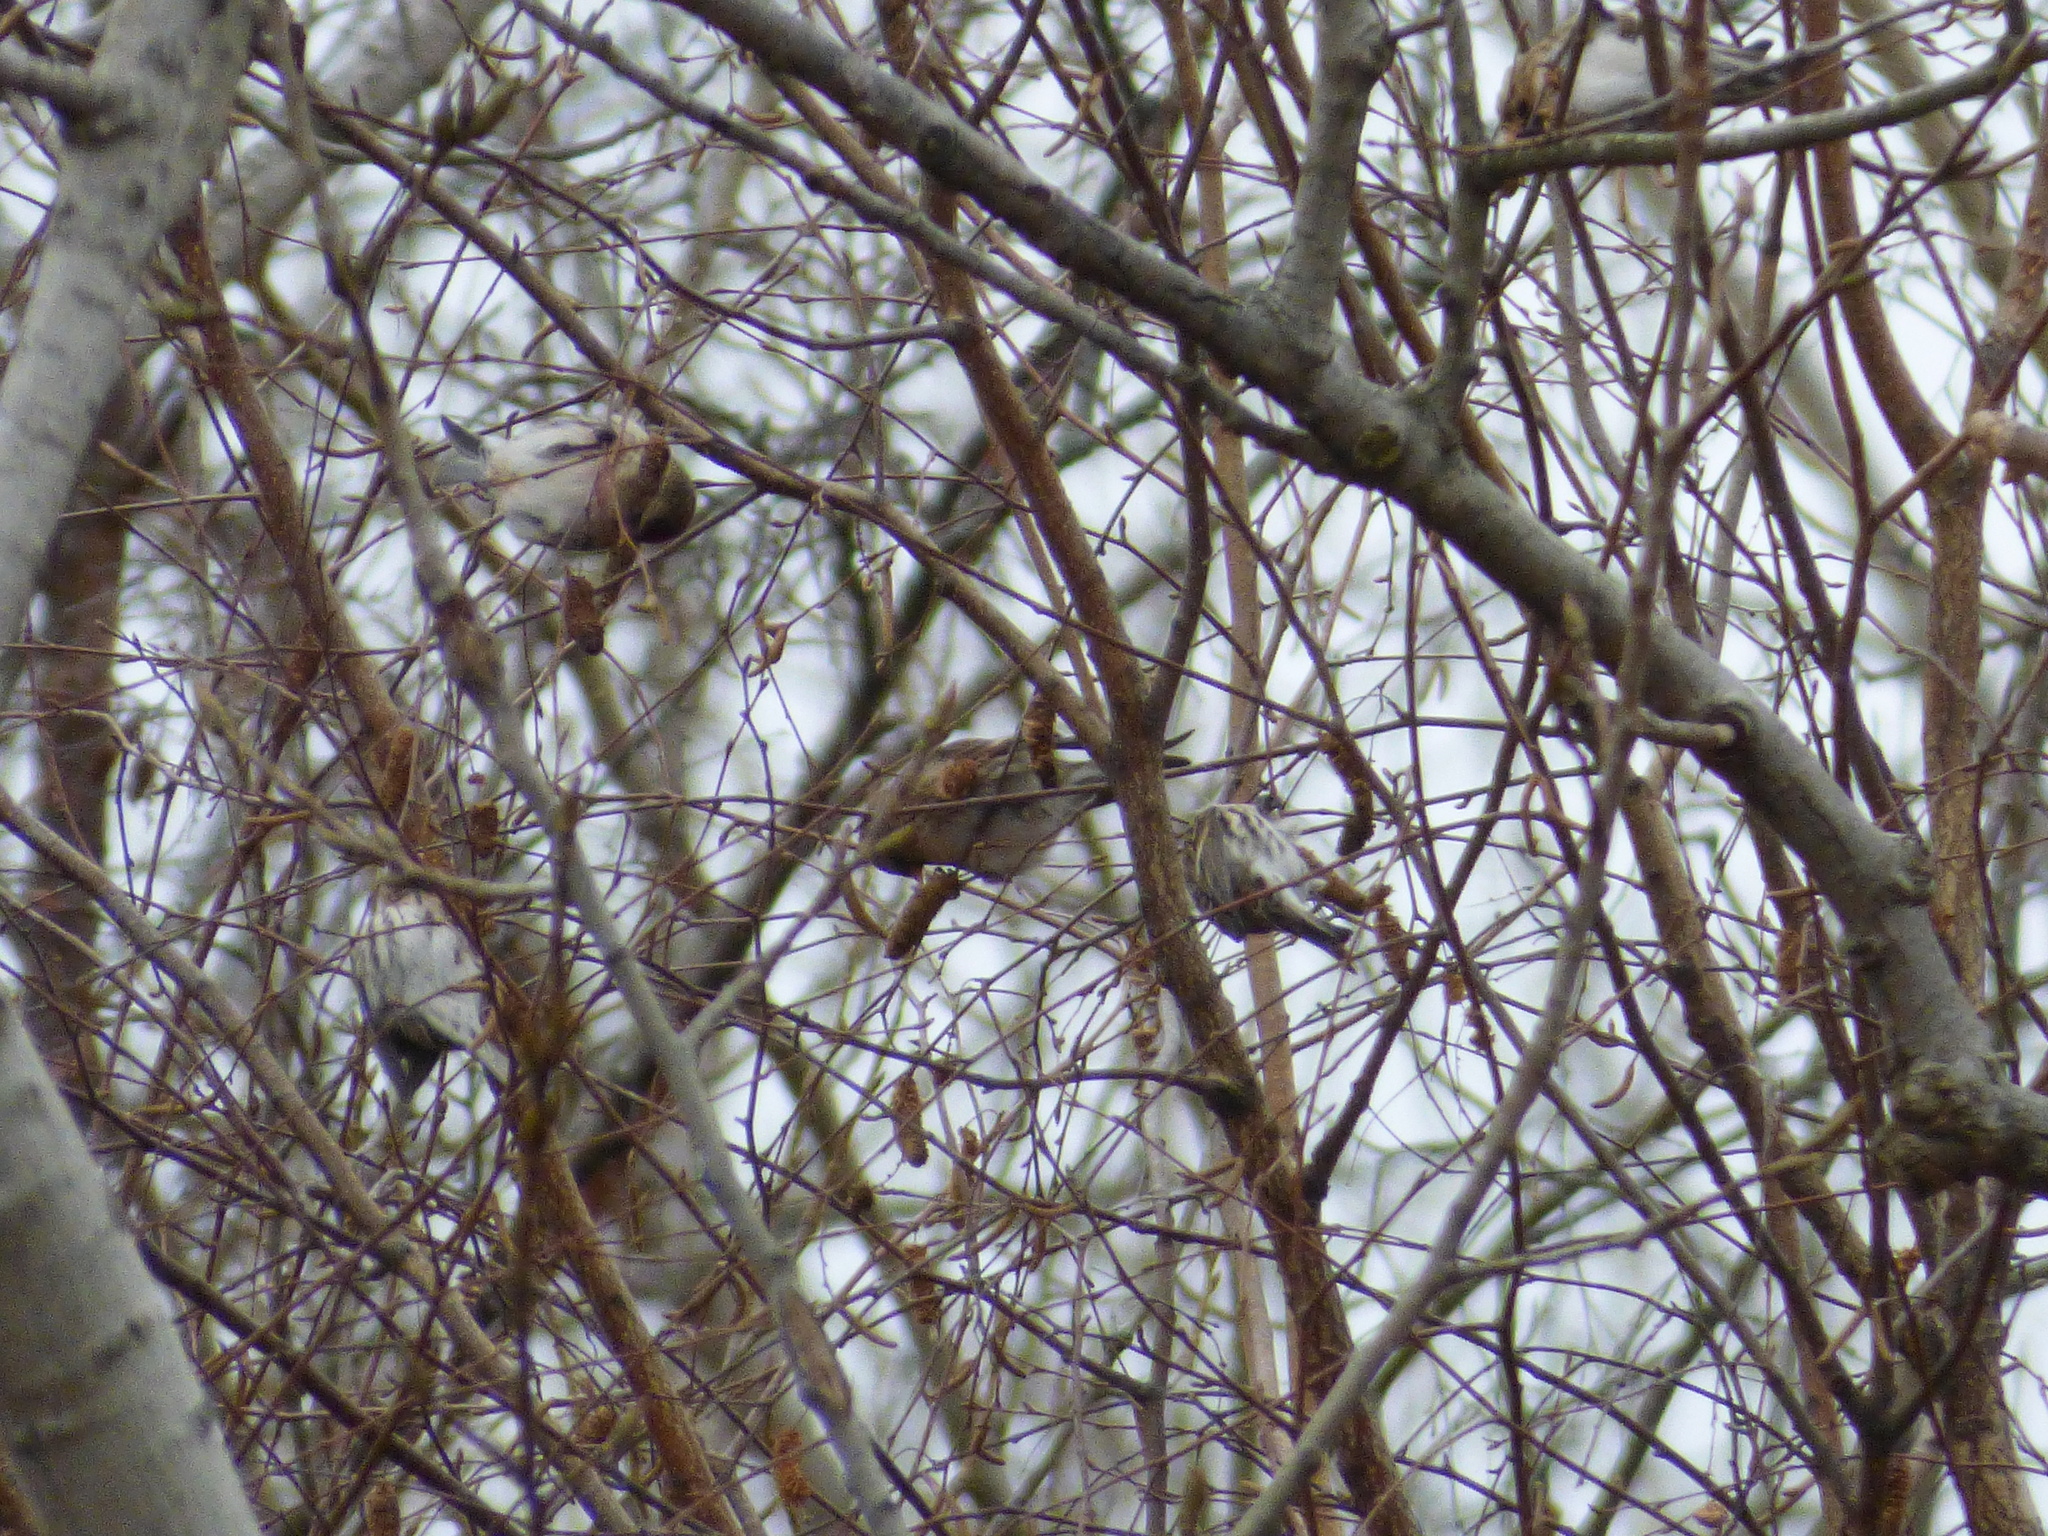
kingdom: Animalia
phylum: Chordata
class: Aves
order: Passeriformes
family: Fringillidae
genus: Acanthis
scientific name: Acanthis flammea
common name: Common redpoll
